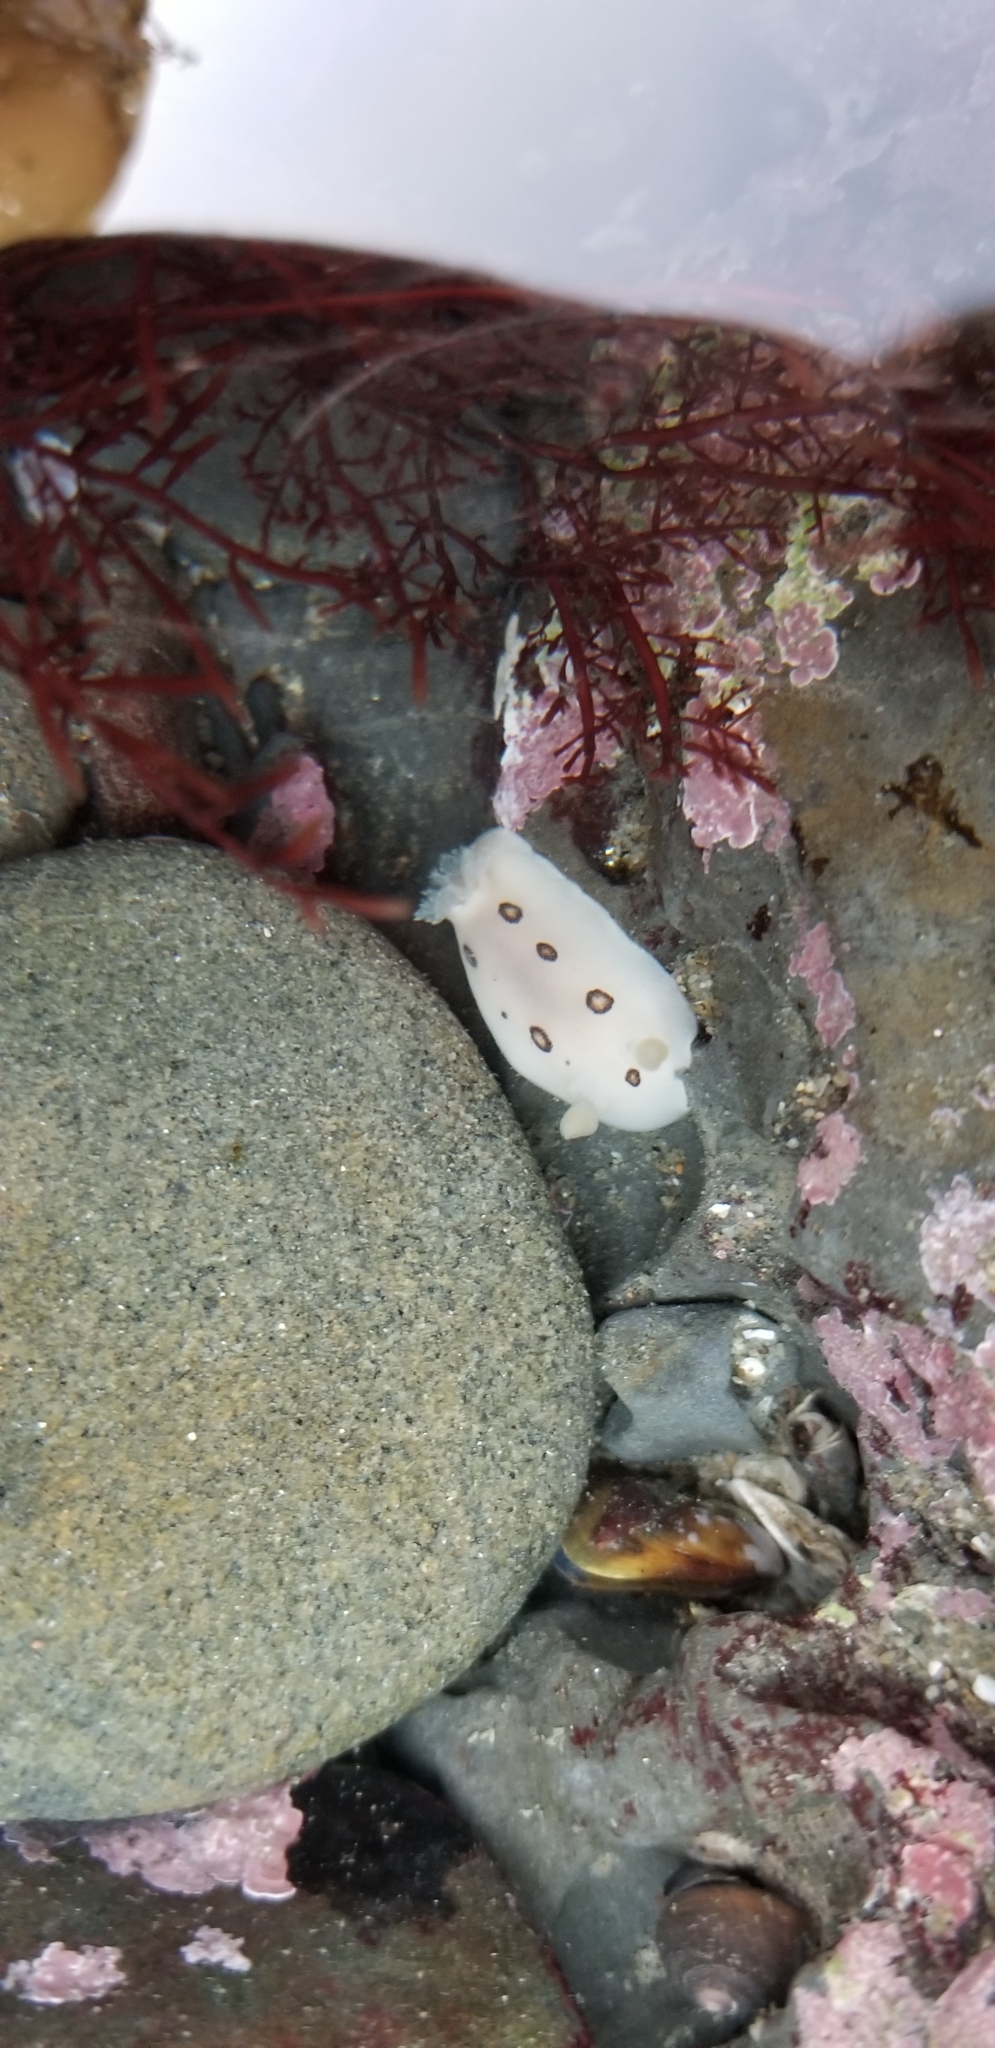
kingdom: Animalia
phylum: Mollusca
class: Gastropoda
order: Nudibranchia
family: Discodorididae
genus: Diaulula
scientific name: Diaulula sandiegensis
